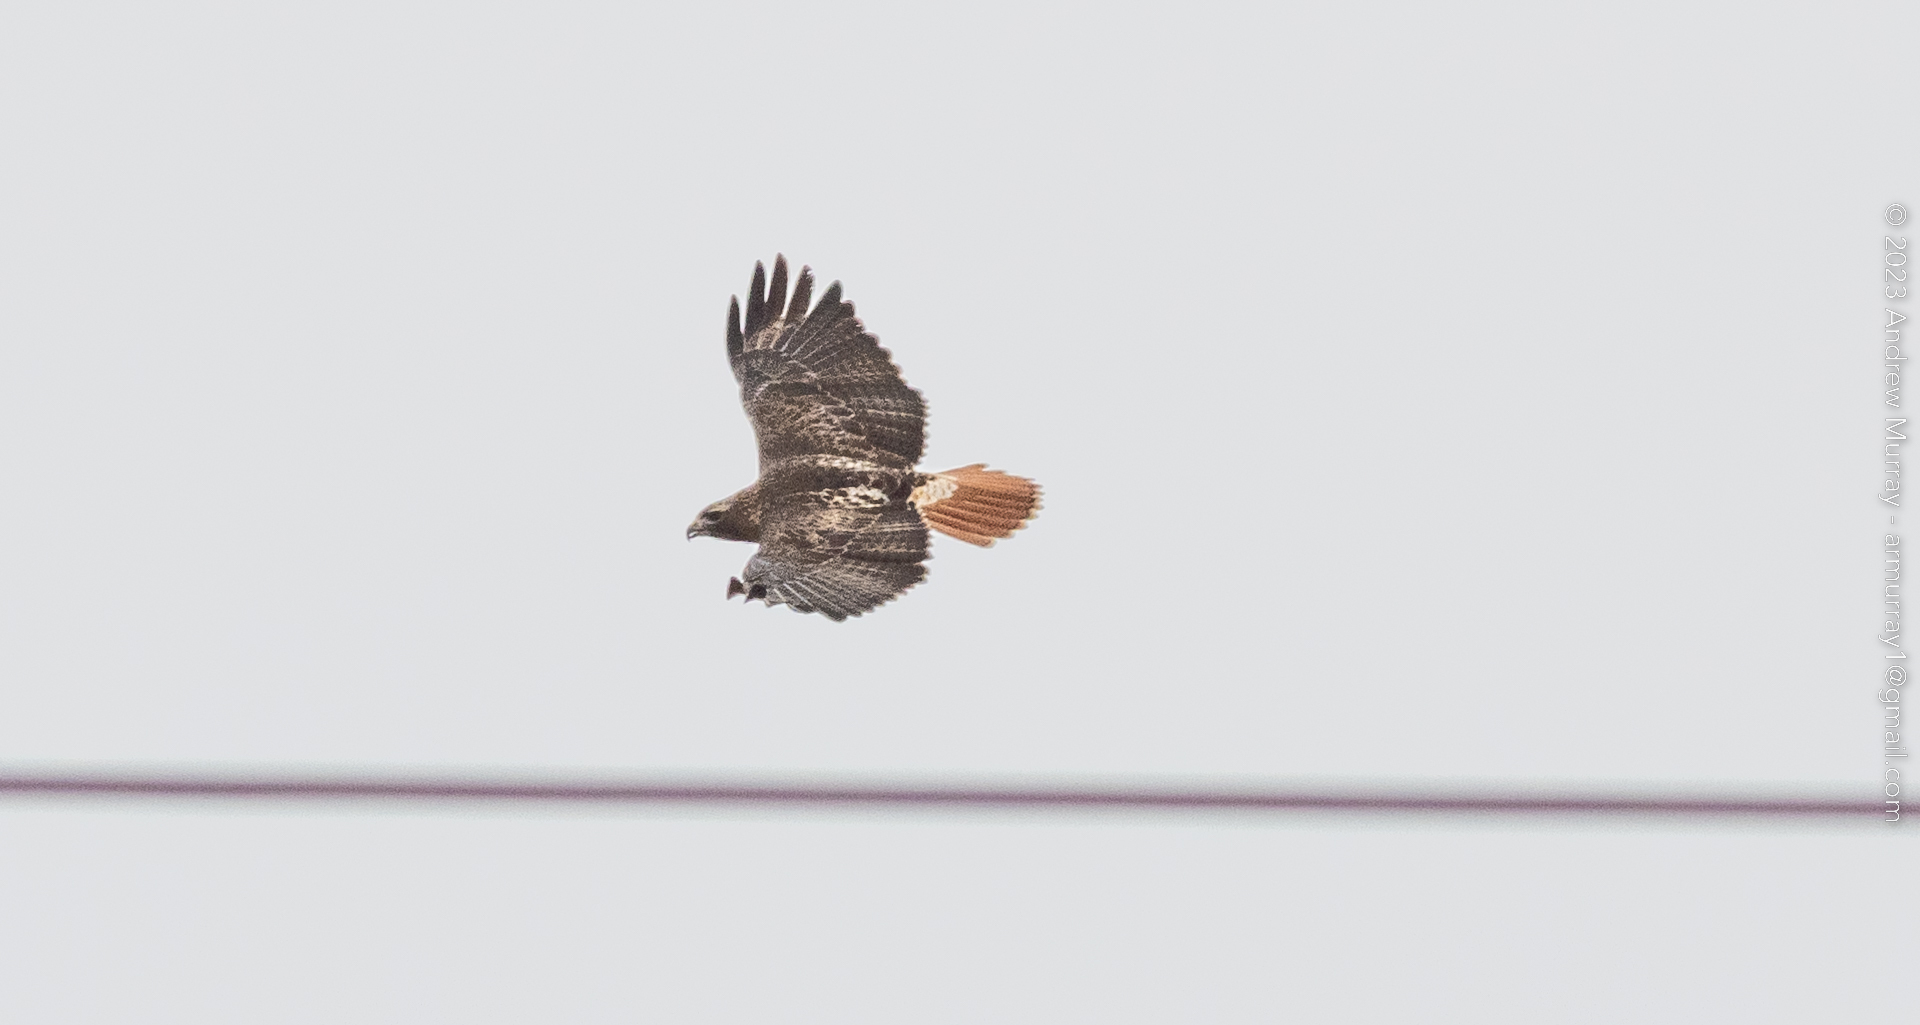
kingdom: Animalia
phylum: Chordata
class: Aves
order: Accipitriformes
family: Accipitridae
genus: Buteo
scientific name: Buteo jamaicensis
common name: Red-tailed hawk
